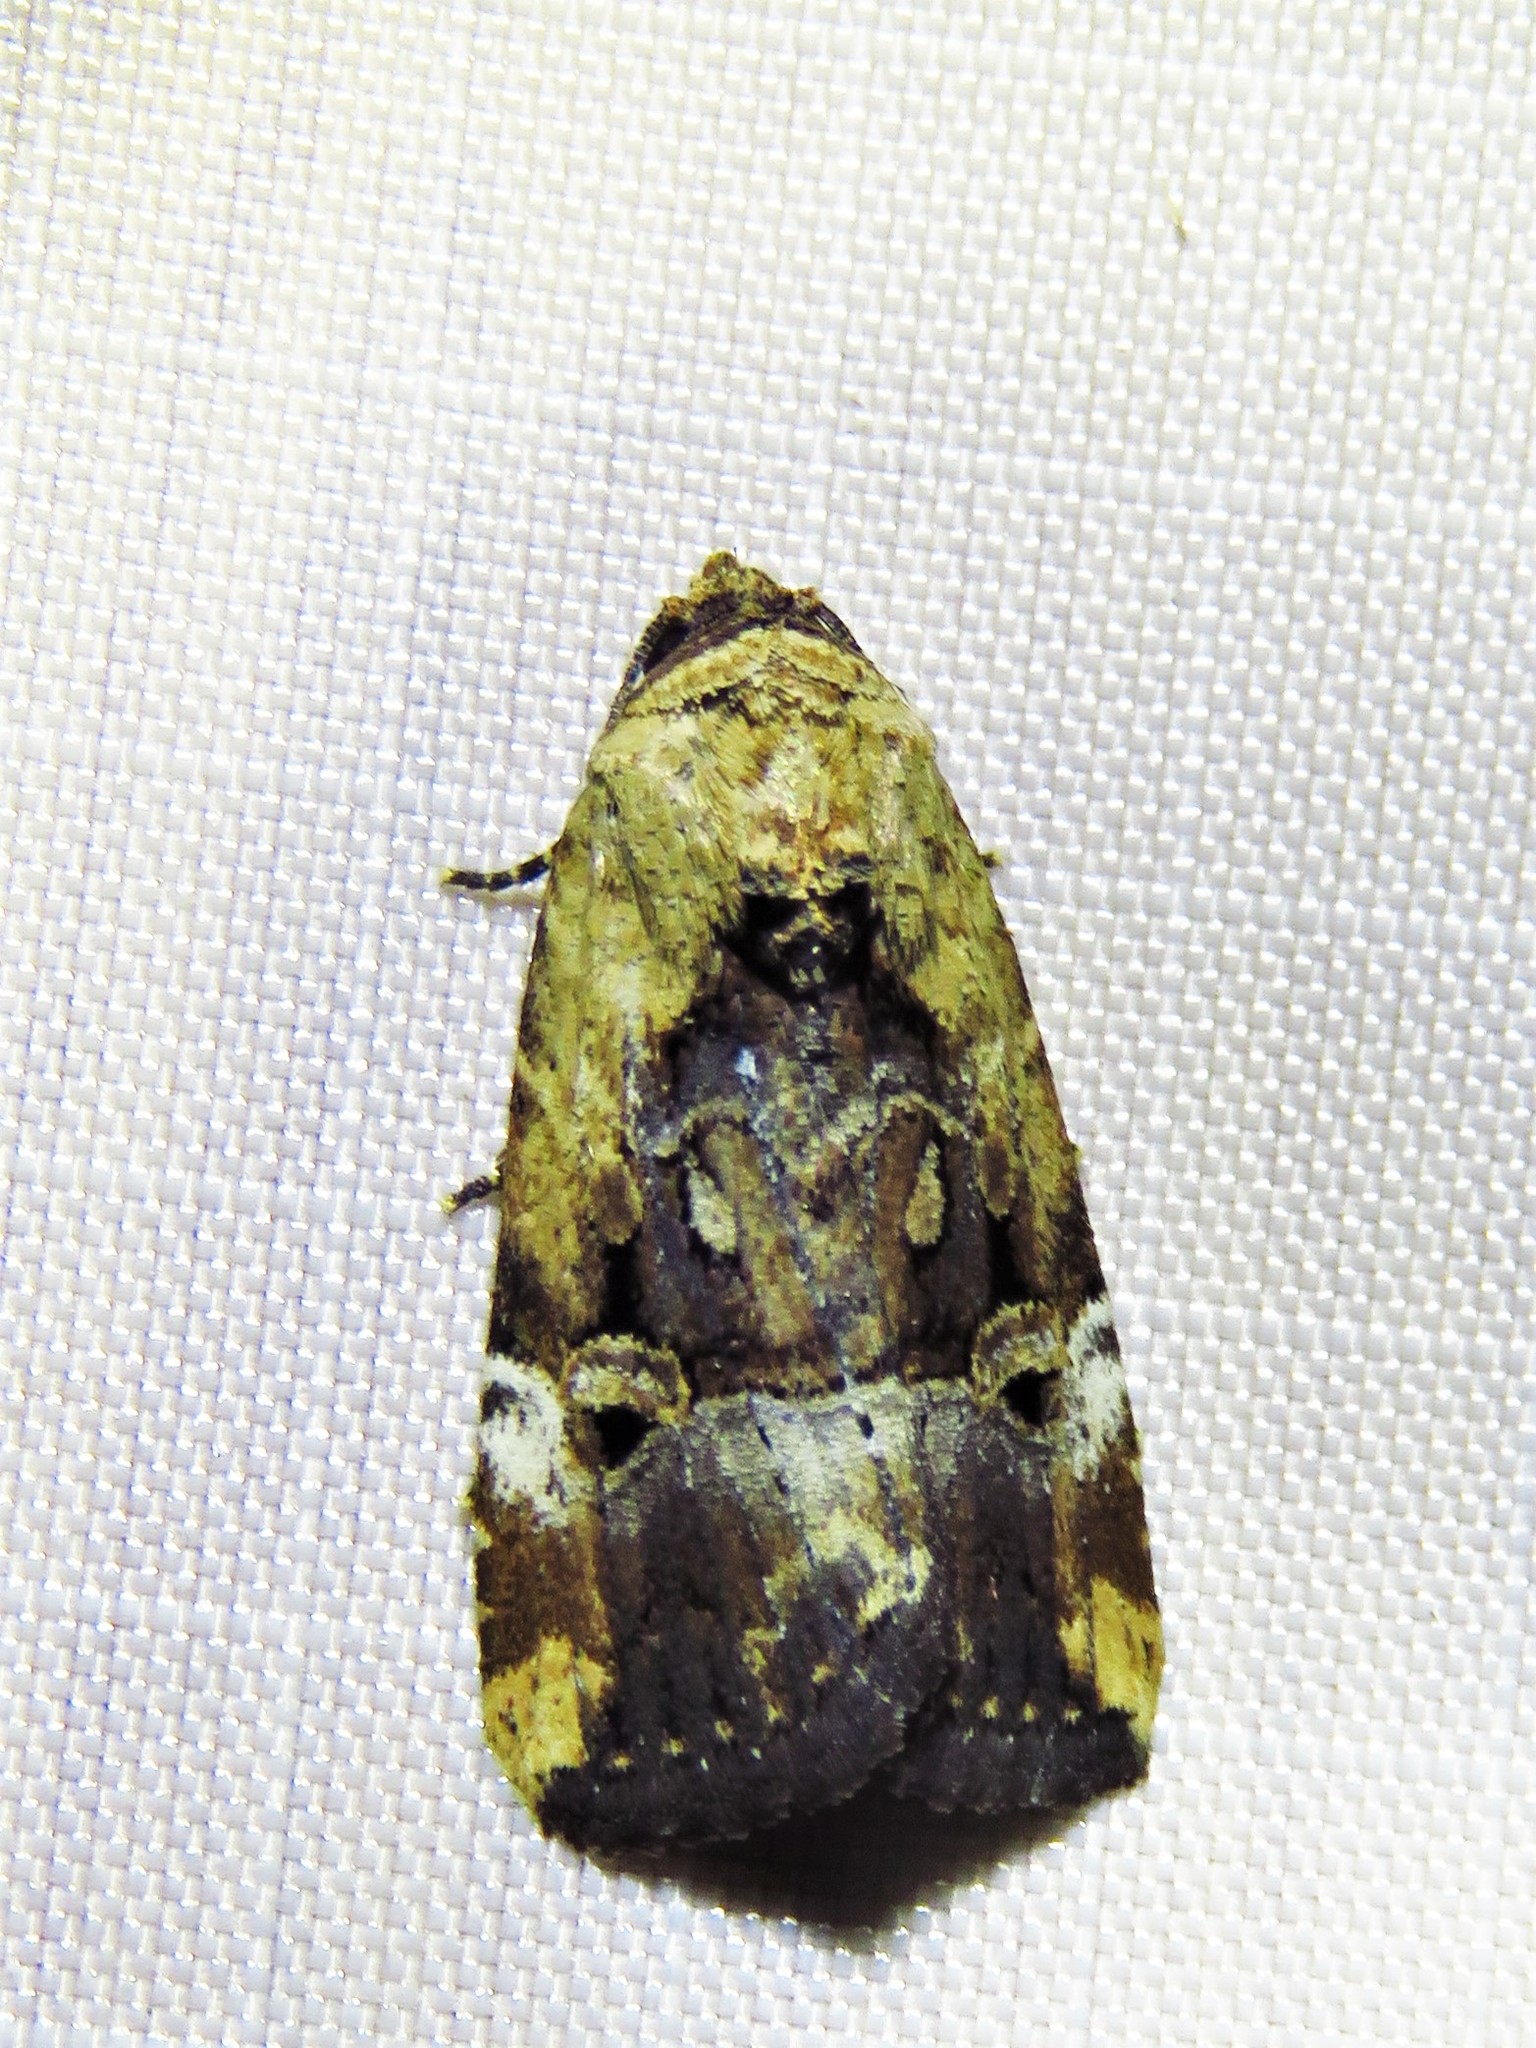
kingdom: Animalia
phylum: Arthropoda
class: Insecta
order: Lepidoptera
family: Noctuidae
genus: Elaphria
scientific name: Elaphria chalcedonia
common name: Chalcedony midget
